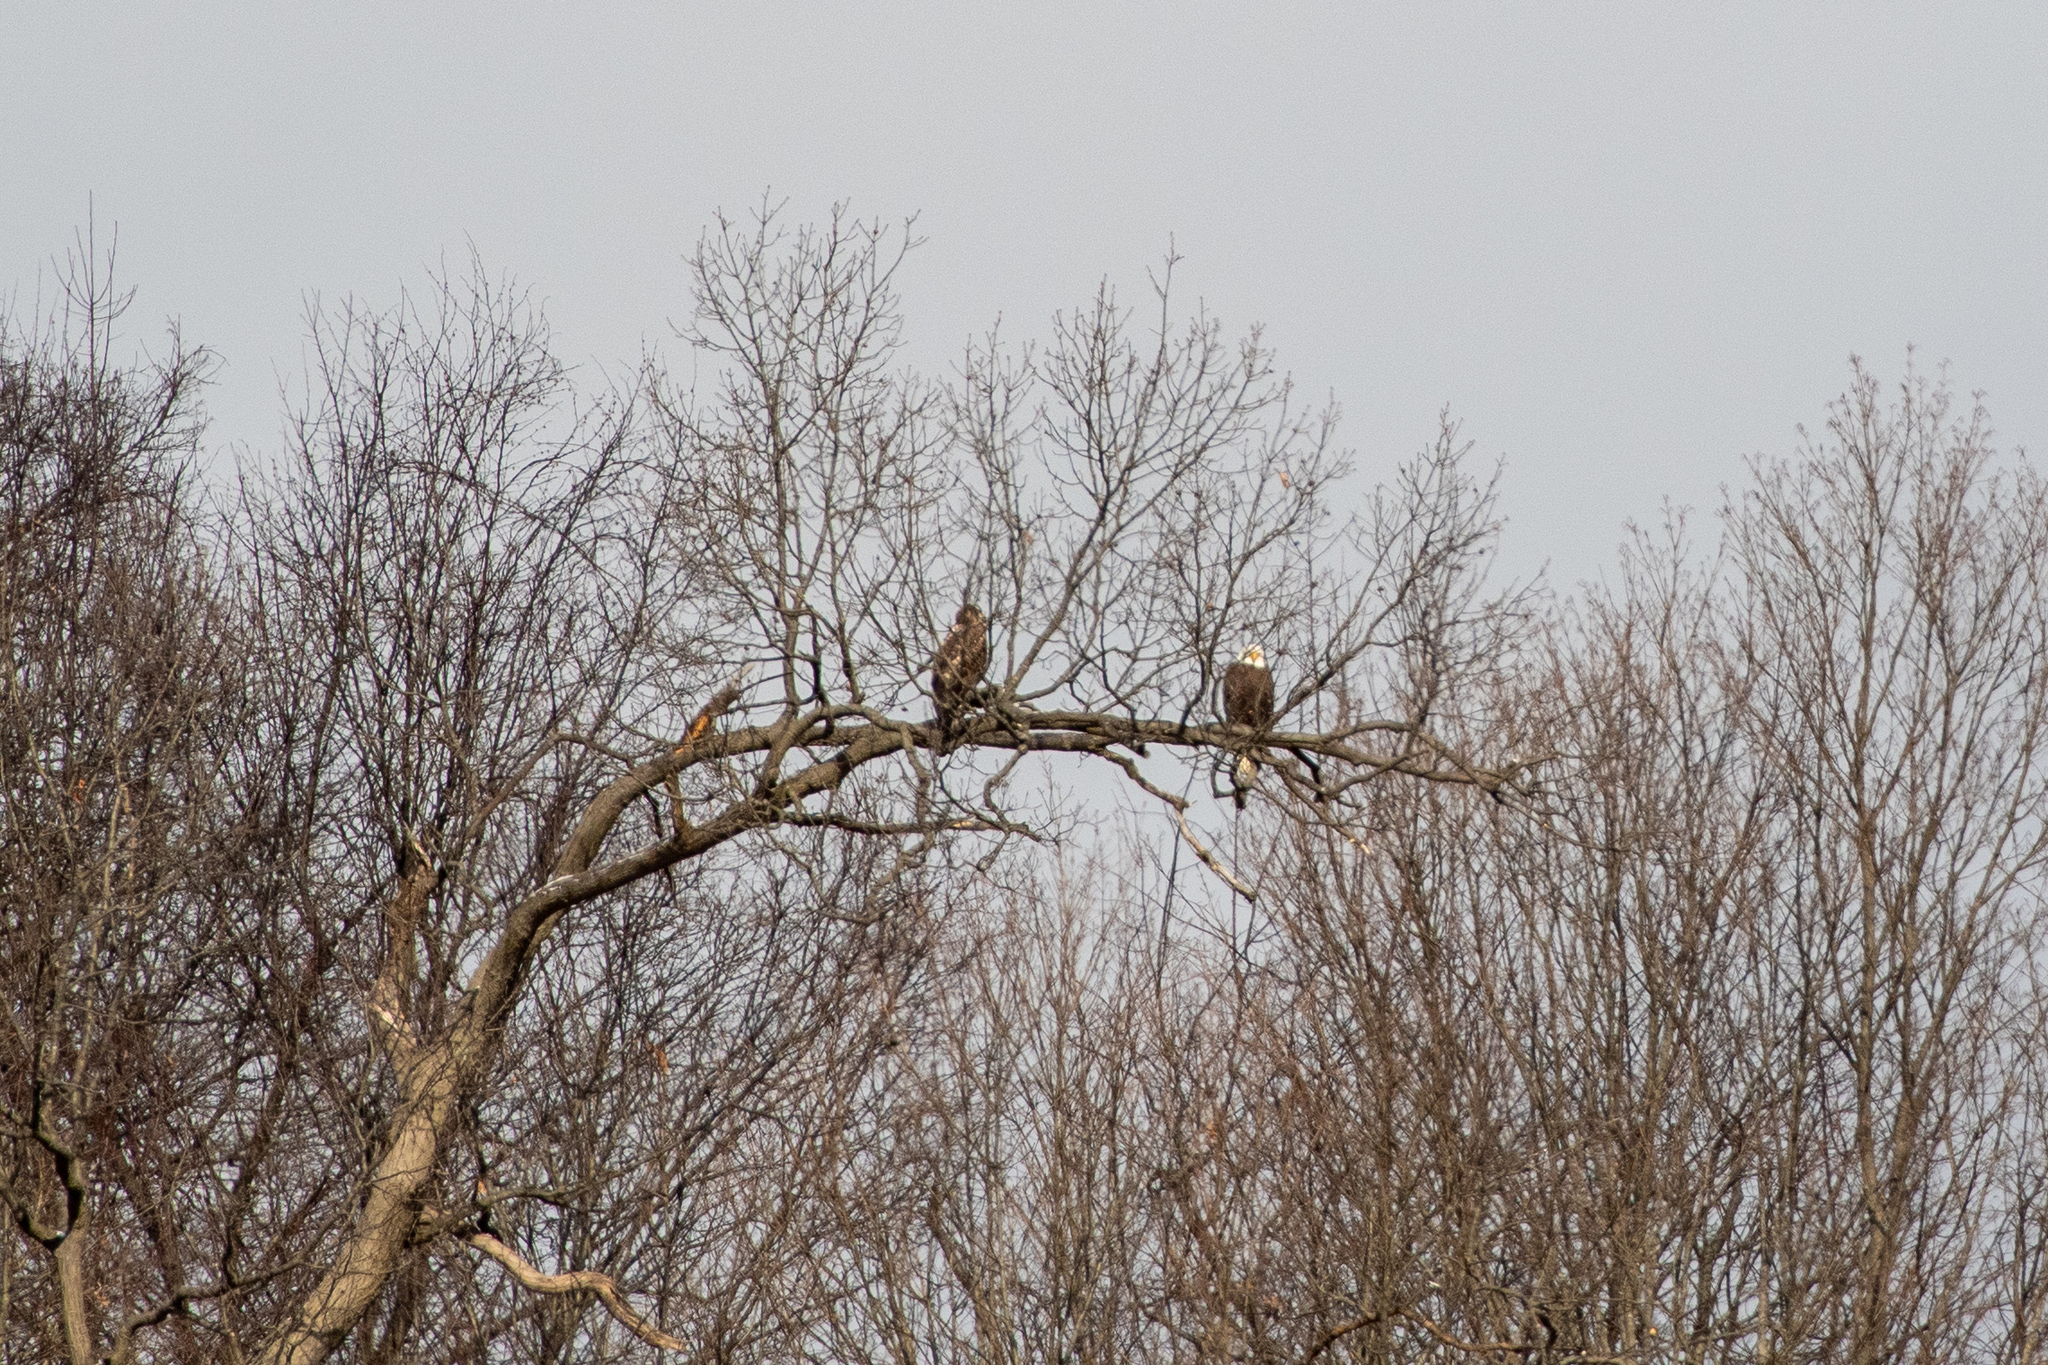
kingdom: Animalia
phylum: Chordata
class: Aves
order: Accipitriformes
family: Accipitridae
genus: Haliaeetus
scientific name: Haliaeetus leucocephalus
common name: Bald eagle
